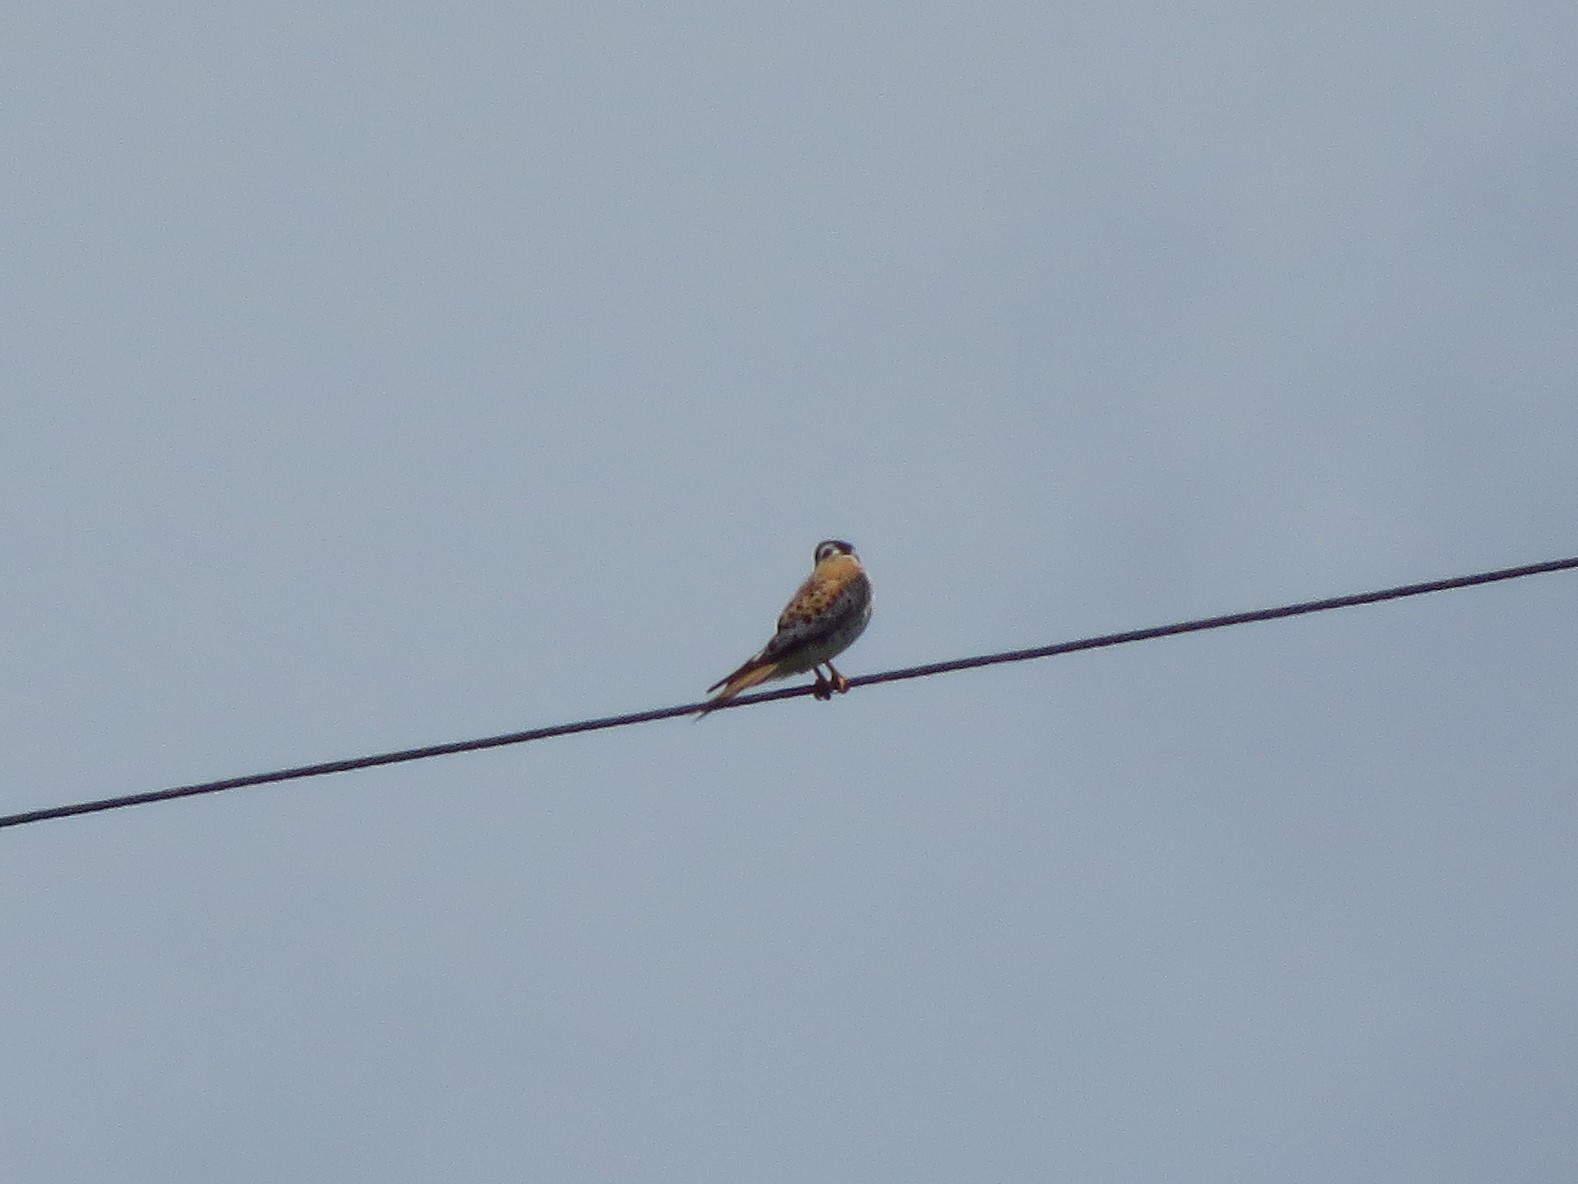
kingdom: Animalia
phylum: Chordata
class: Aves
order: Falconiformes
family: Falconidae
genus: Falco
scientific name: Falco sparverius
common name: American kestrel
